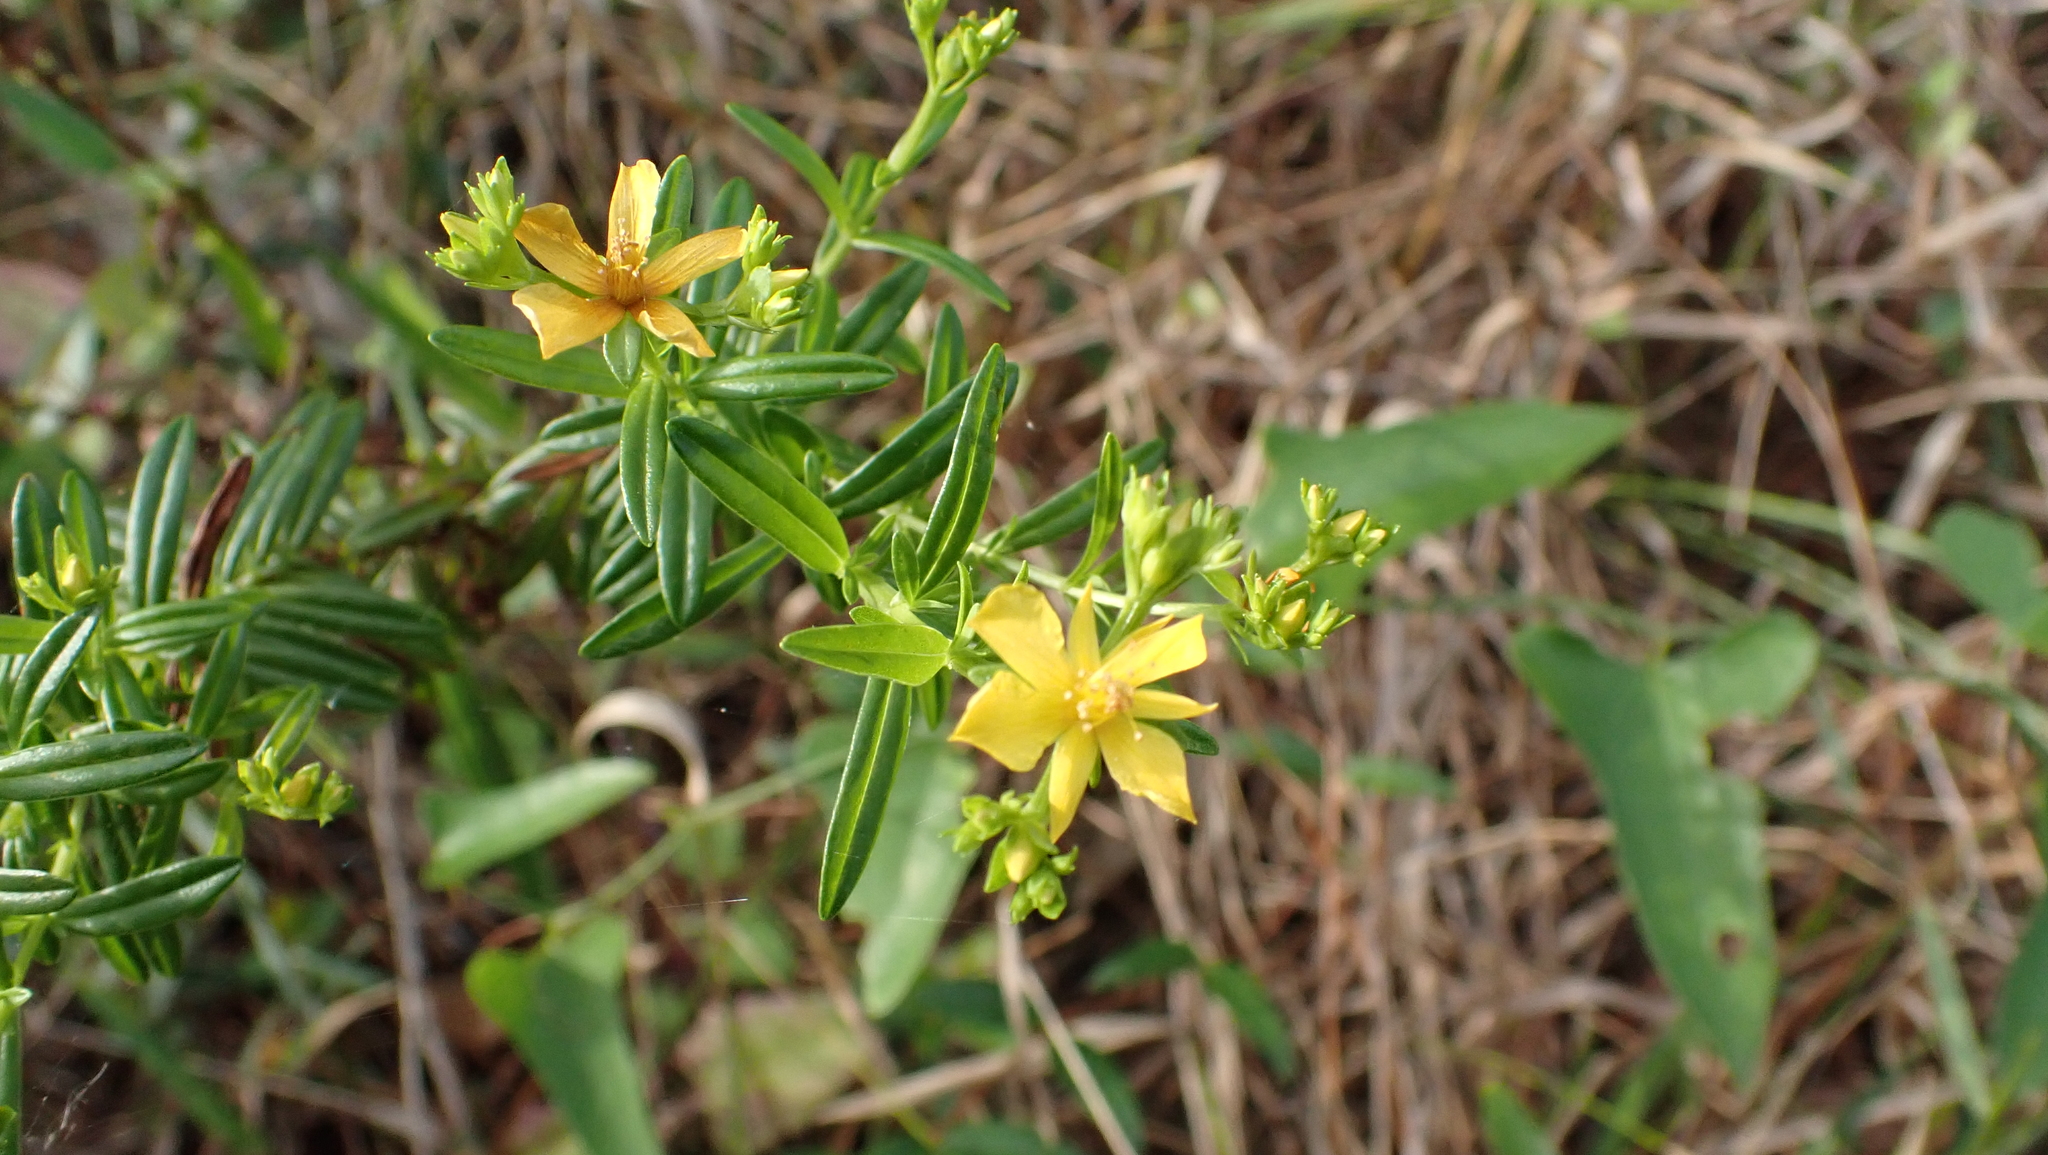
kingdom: Plantae
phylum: Tracheophyta
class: Magnoliopsida
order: Malpighiales
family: Hypericaceae
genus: Hypericum
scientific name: Hypericum cistifolium
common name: Round-pod st. john's-wort
